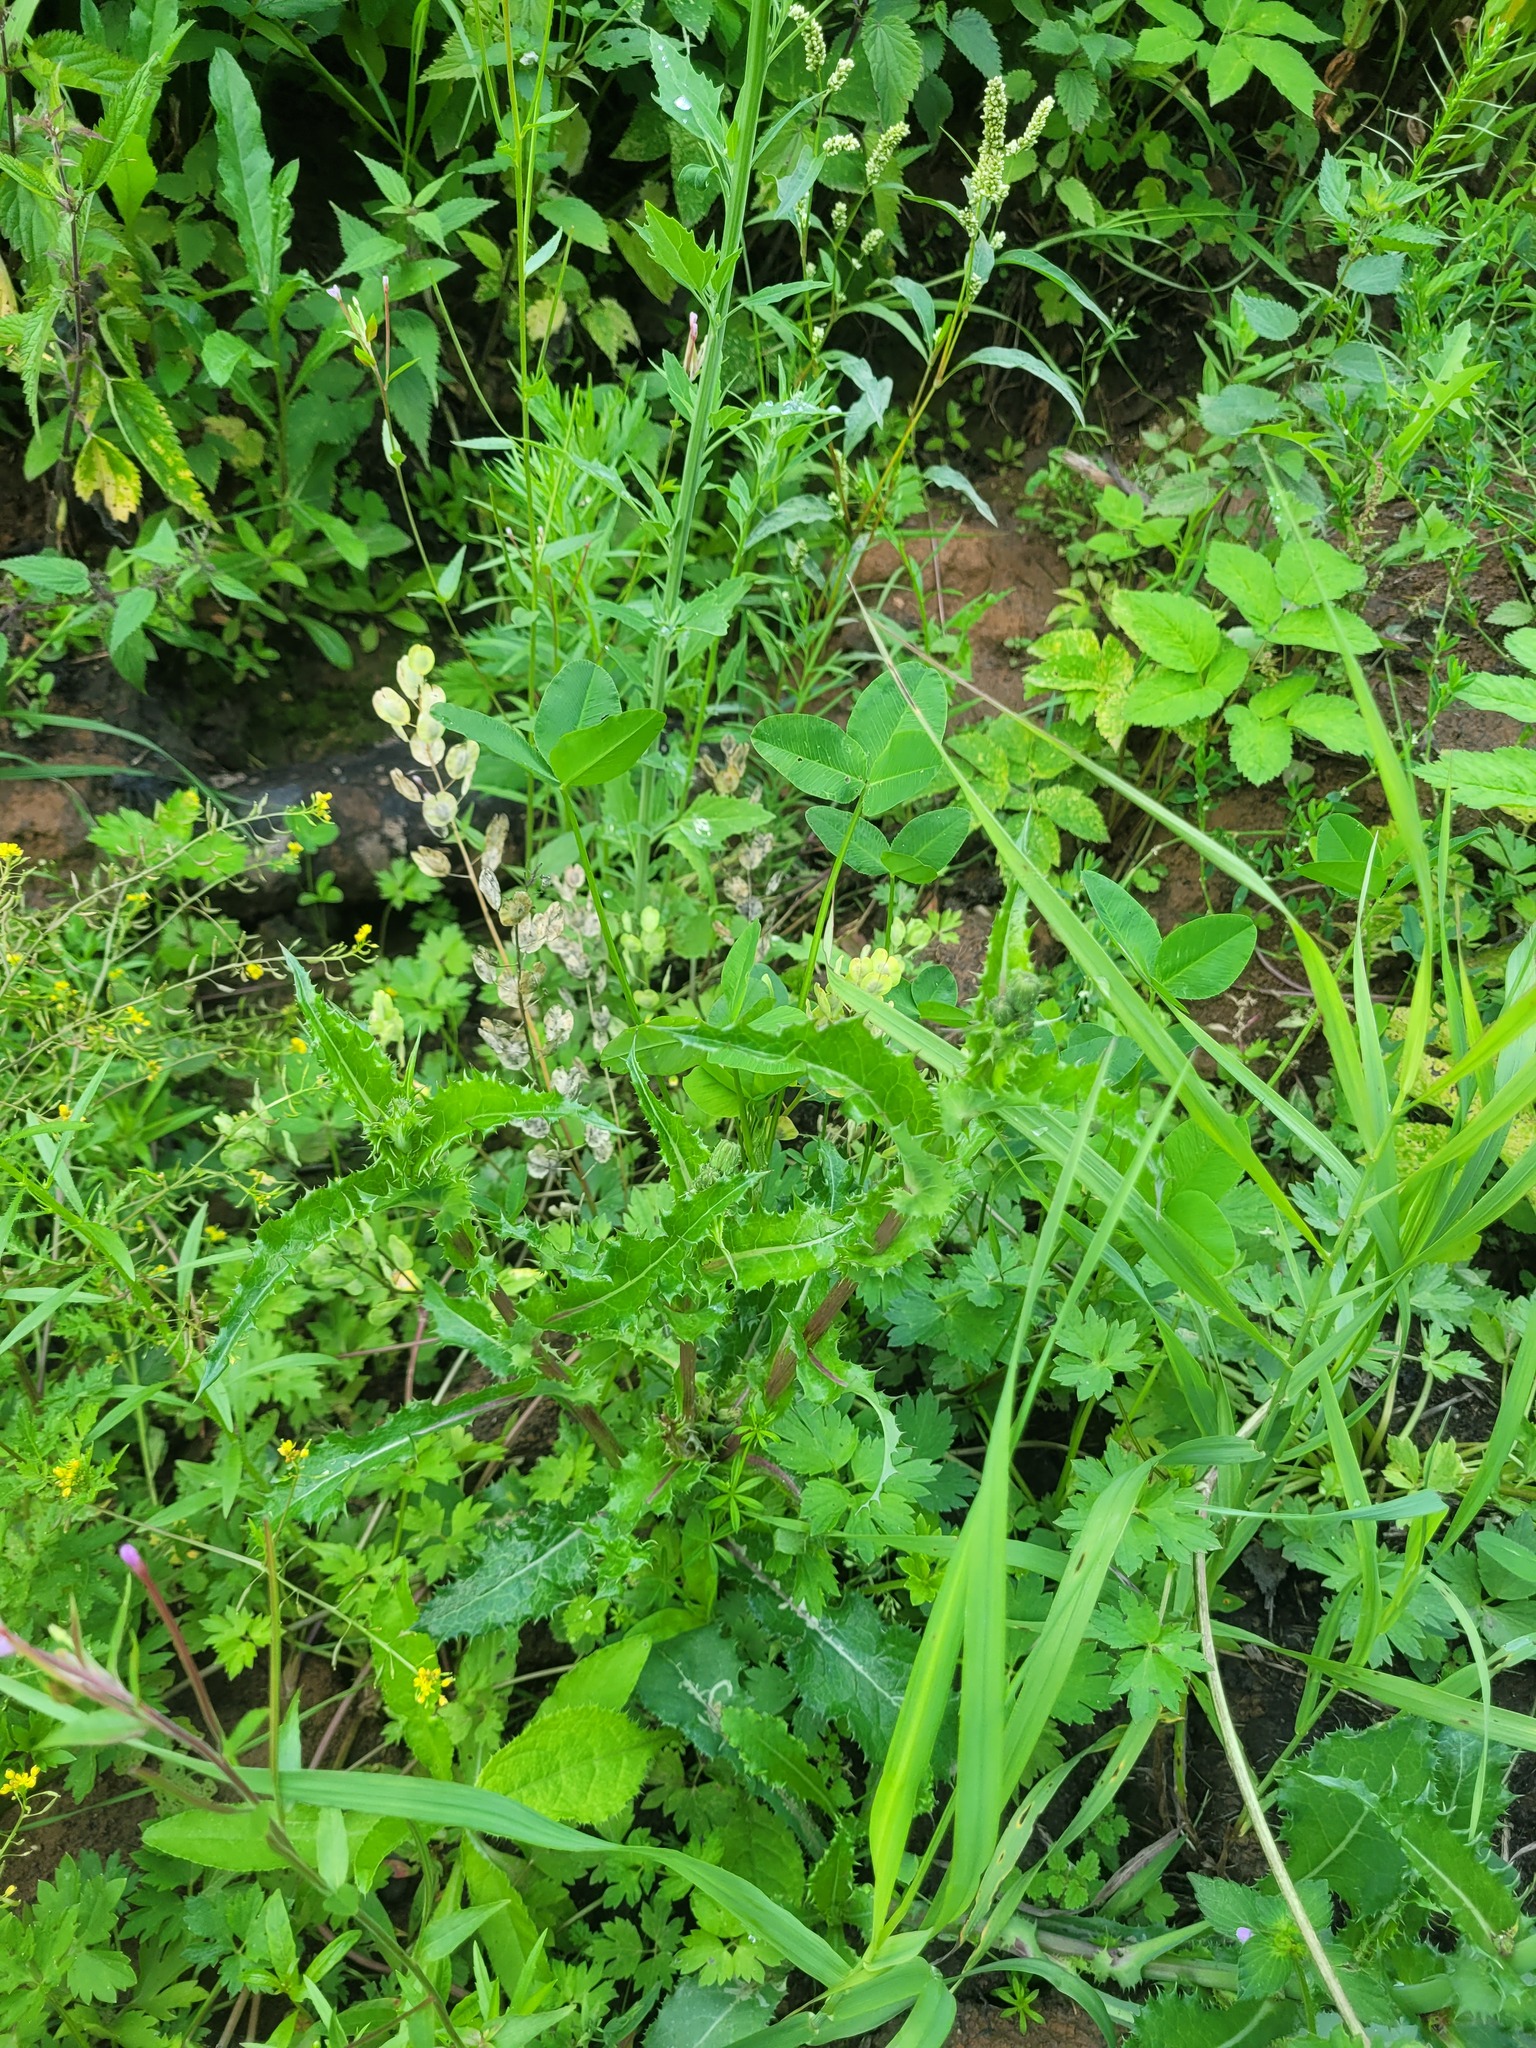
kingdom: Plantae
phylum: Tracheophyta
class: Magnoliopsida
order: Asterales
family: Asteraceae
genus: Sonchus
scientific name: Sonchus asper
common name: Prickly sow-thistle
